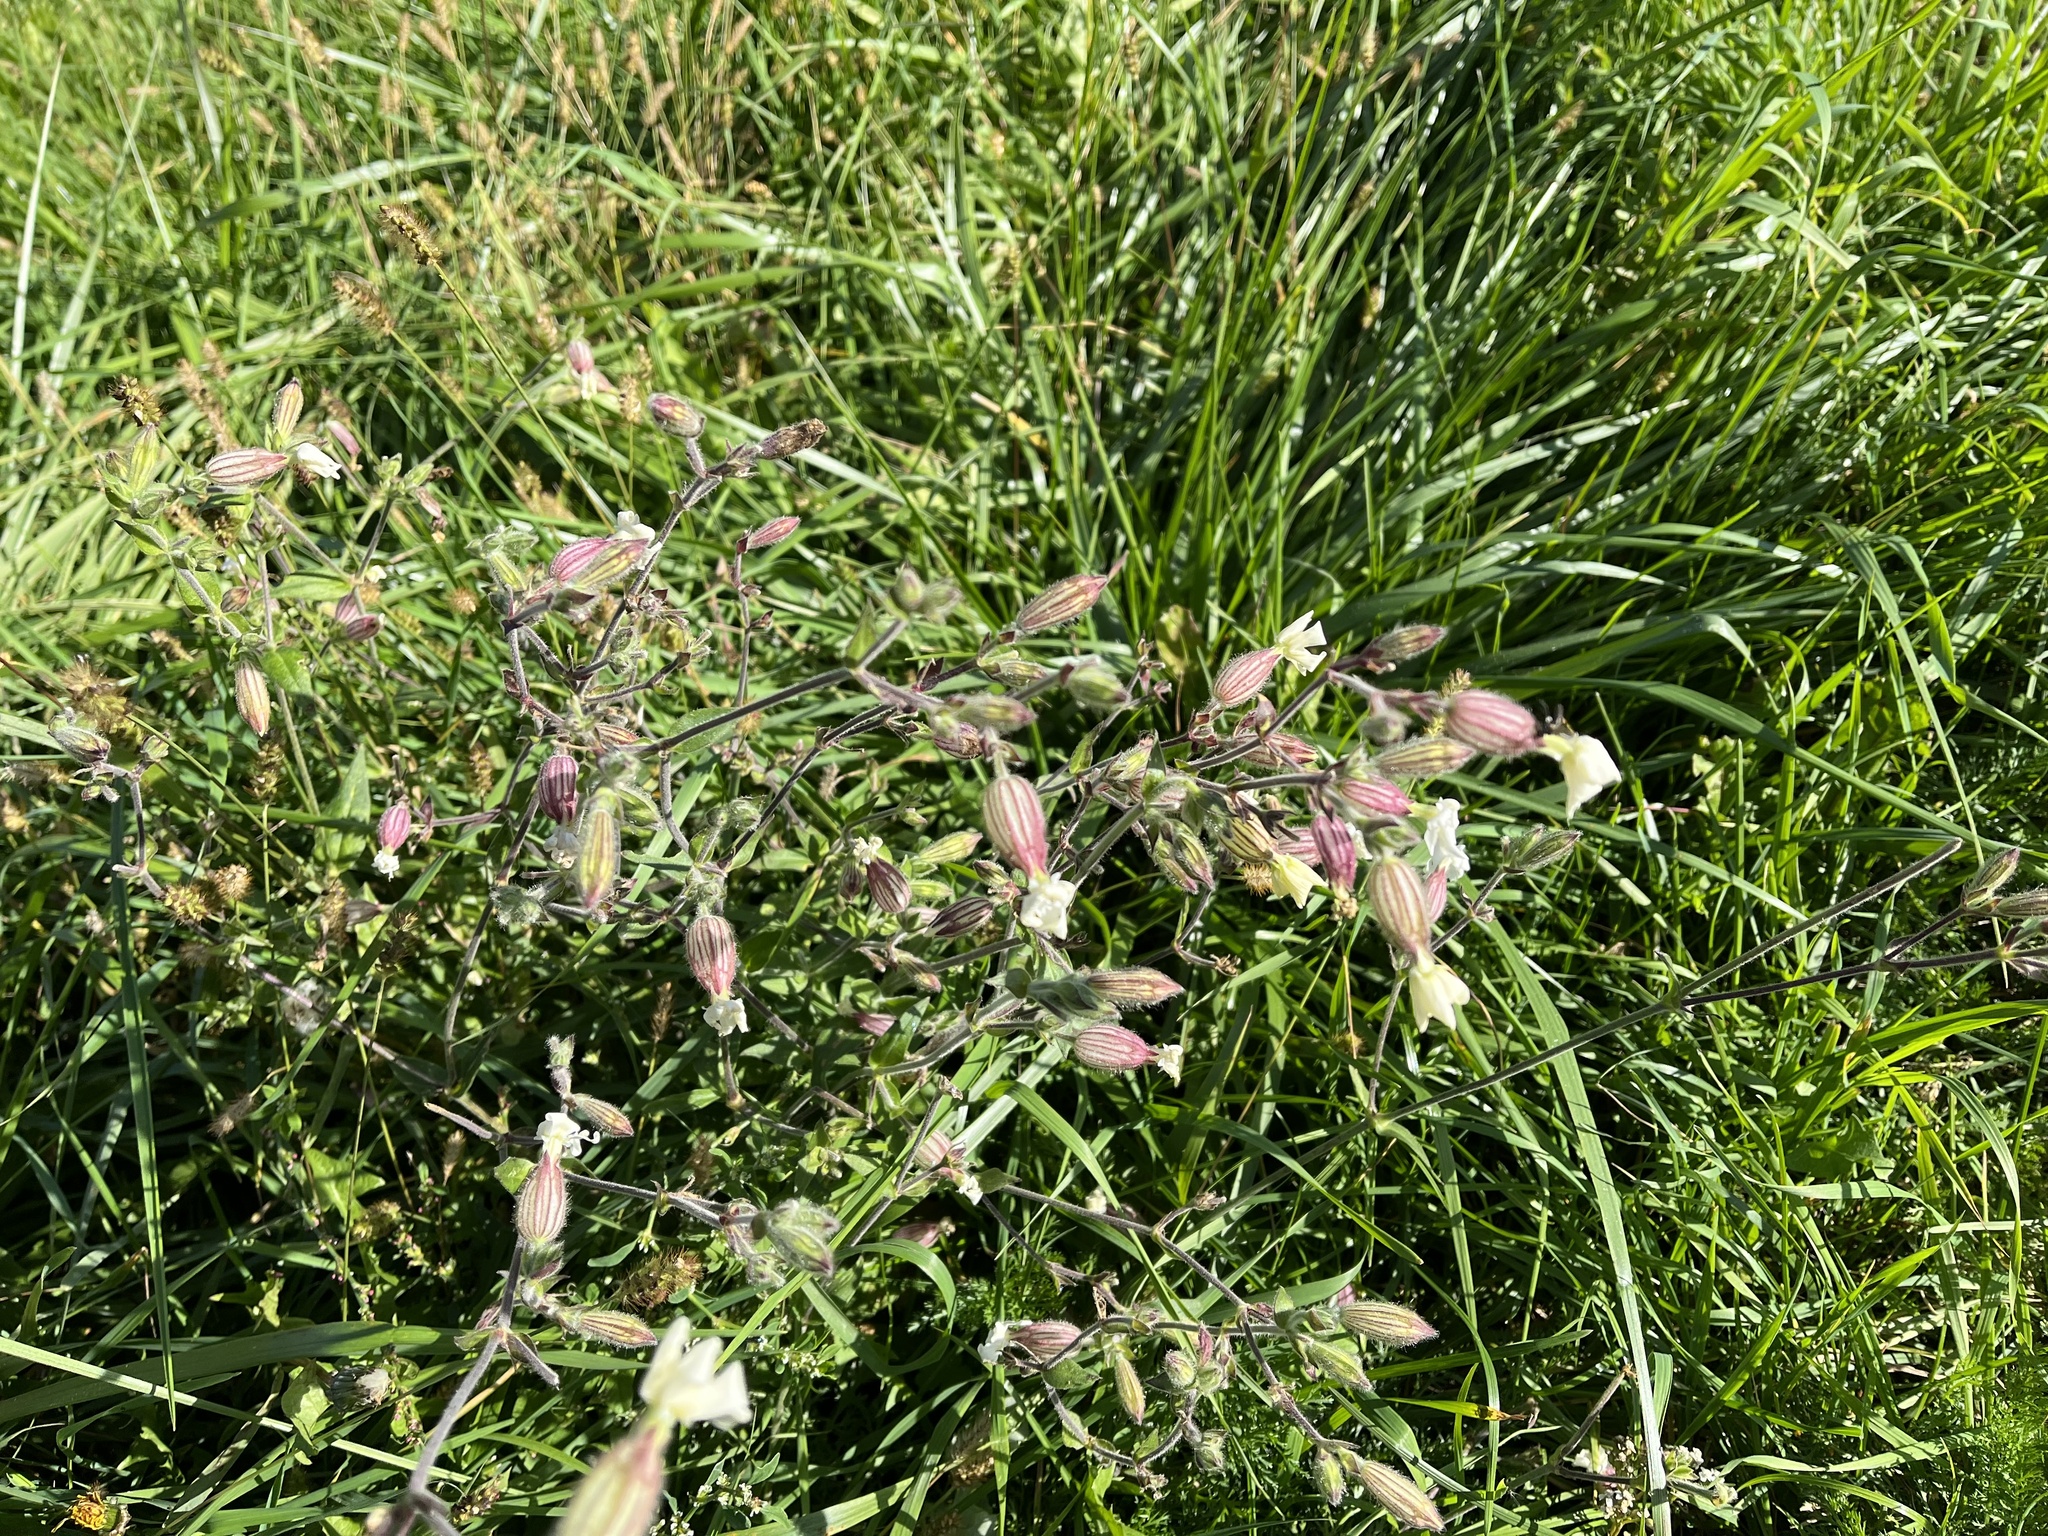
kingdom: Plantae
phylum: Tracheophyta
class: Magnoliopsida
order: Caryophyllales
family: Caryophyllaceae
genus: Silene
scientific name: Silene latifolia
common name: White campion
